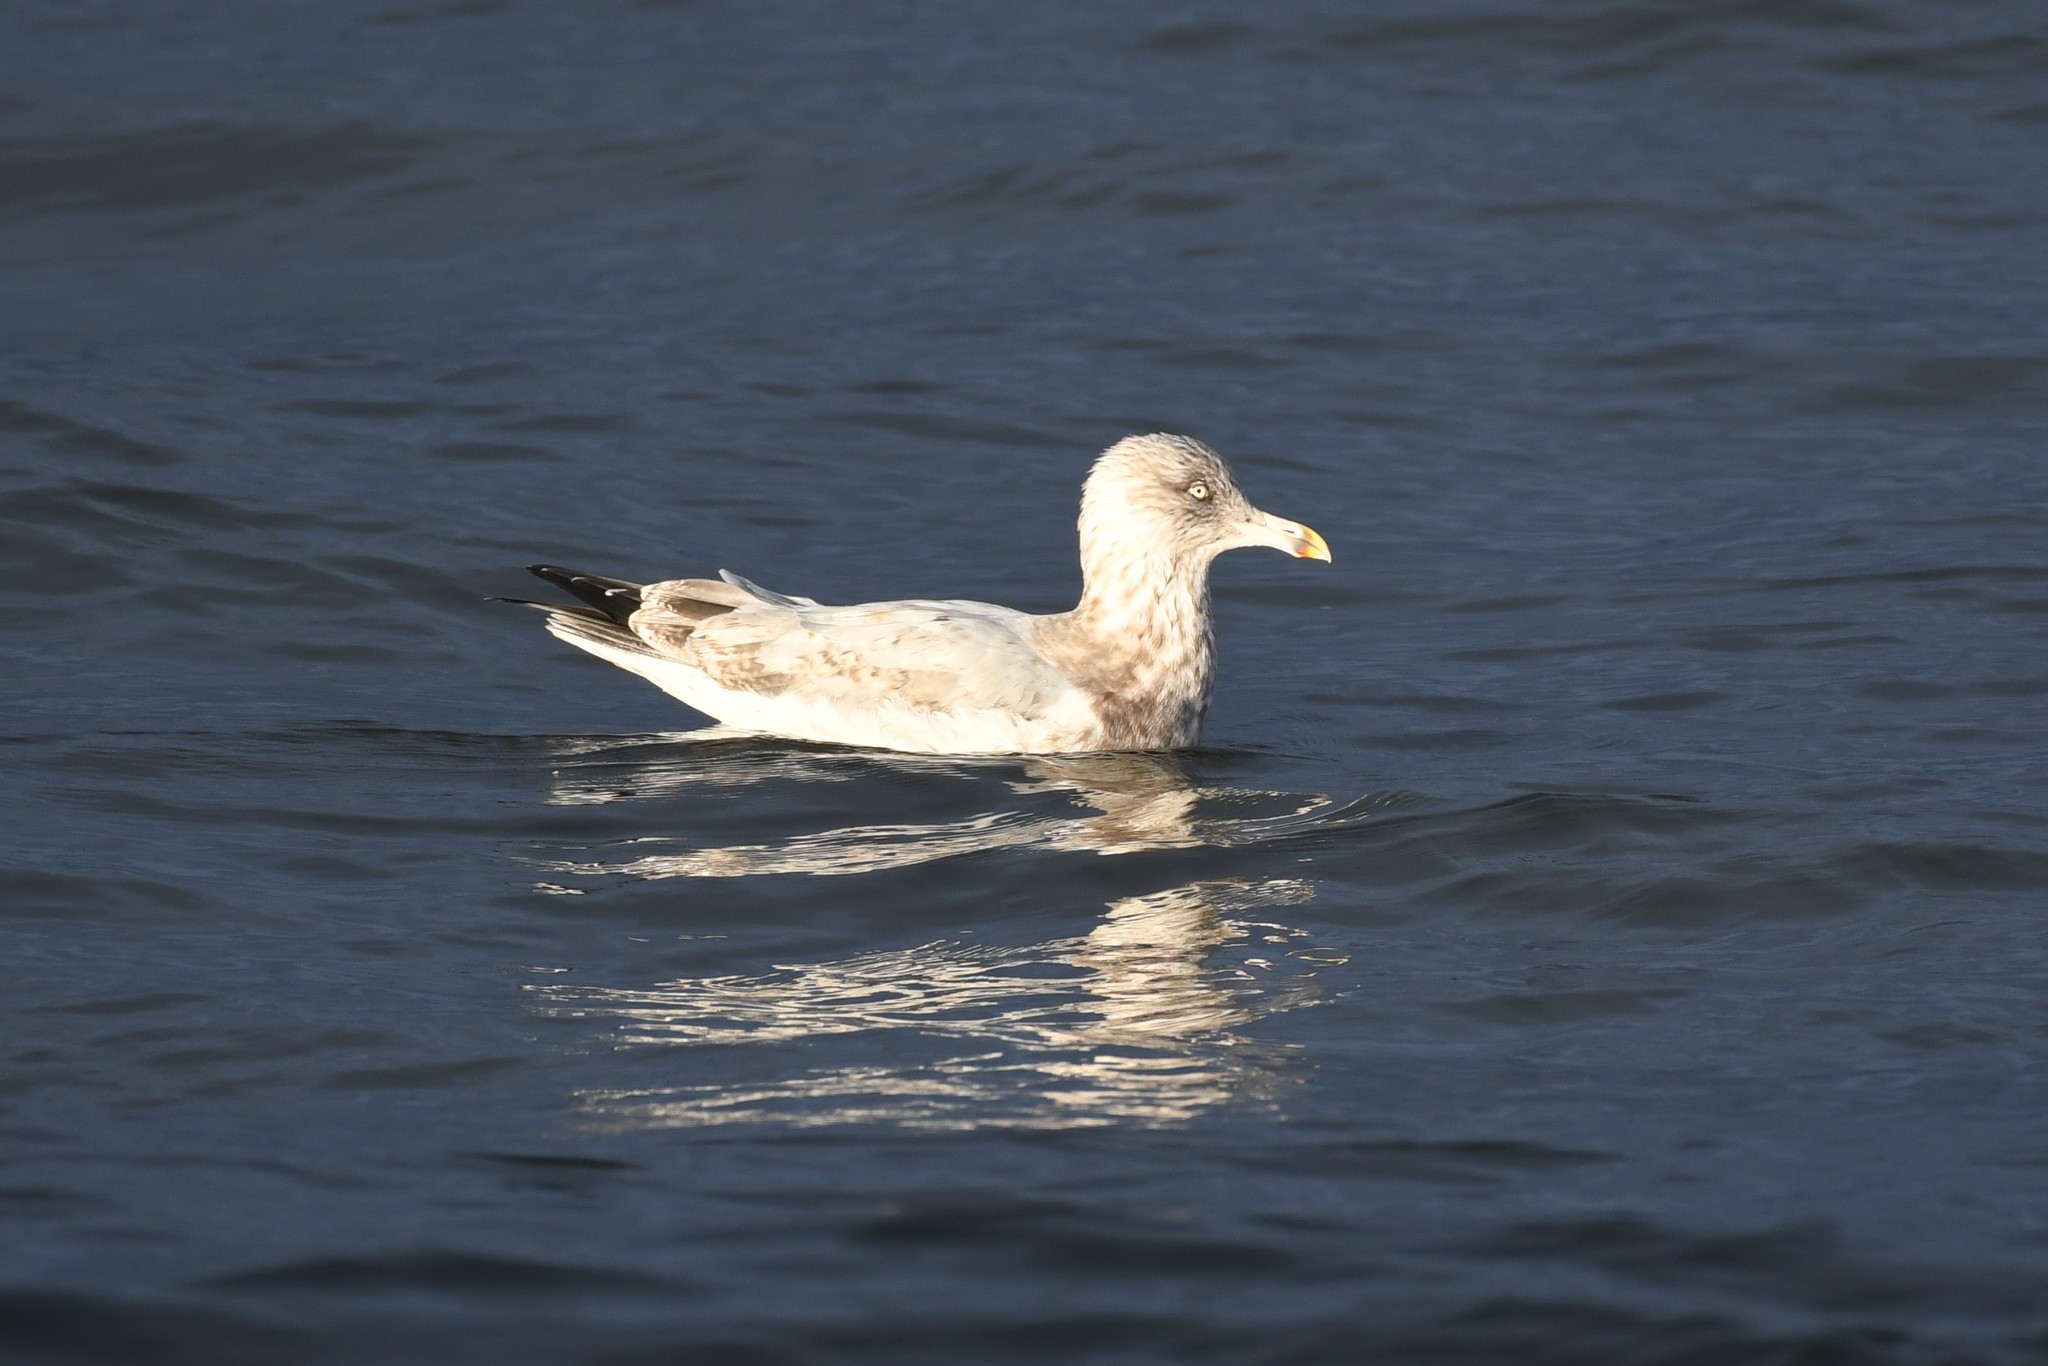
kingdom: Animalia
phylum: Chordata
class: Aves
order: Charadriiformes
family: Laridae
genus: Larus
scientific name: Larus argentatus
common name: Herring gull
